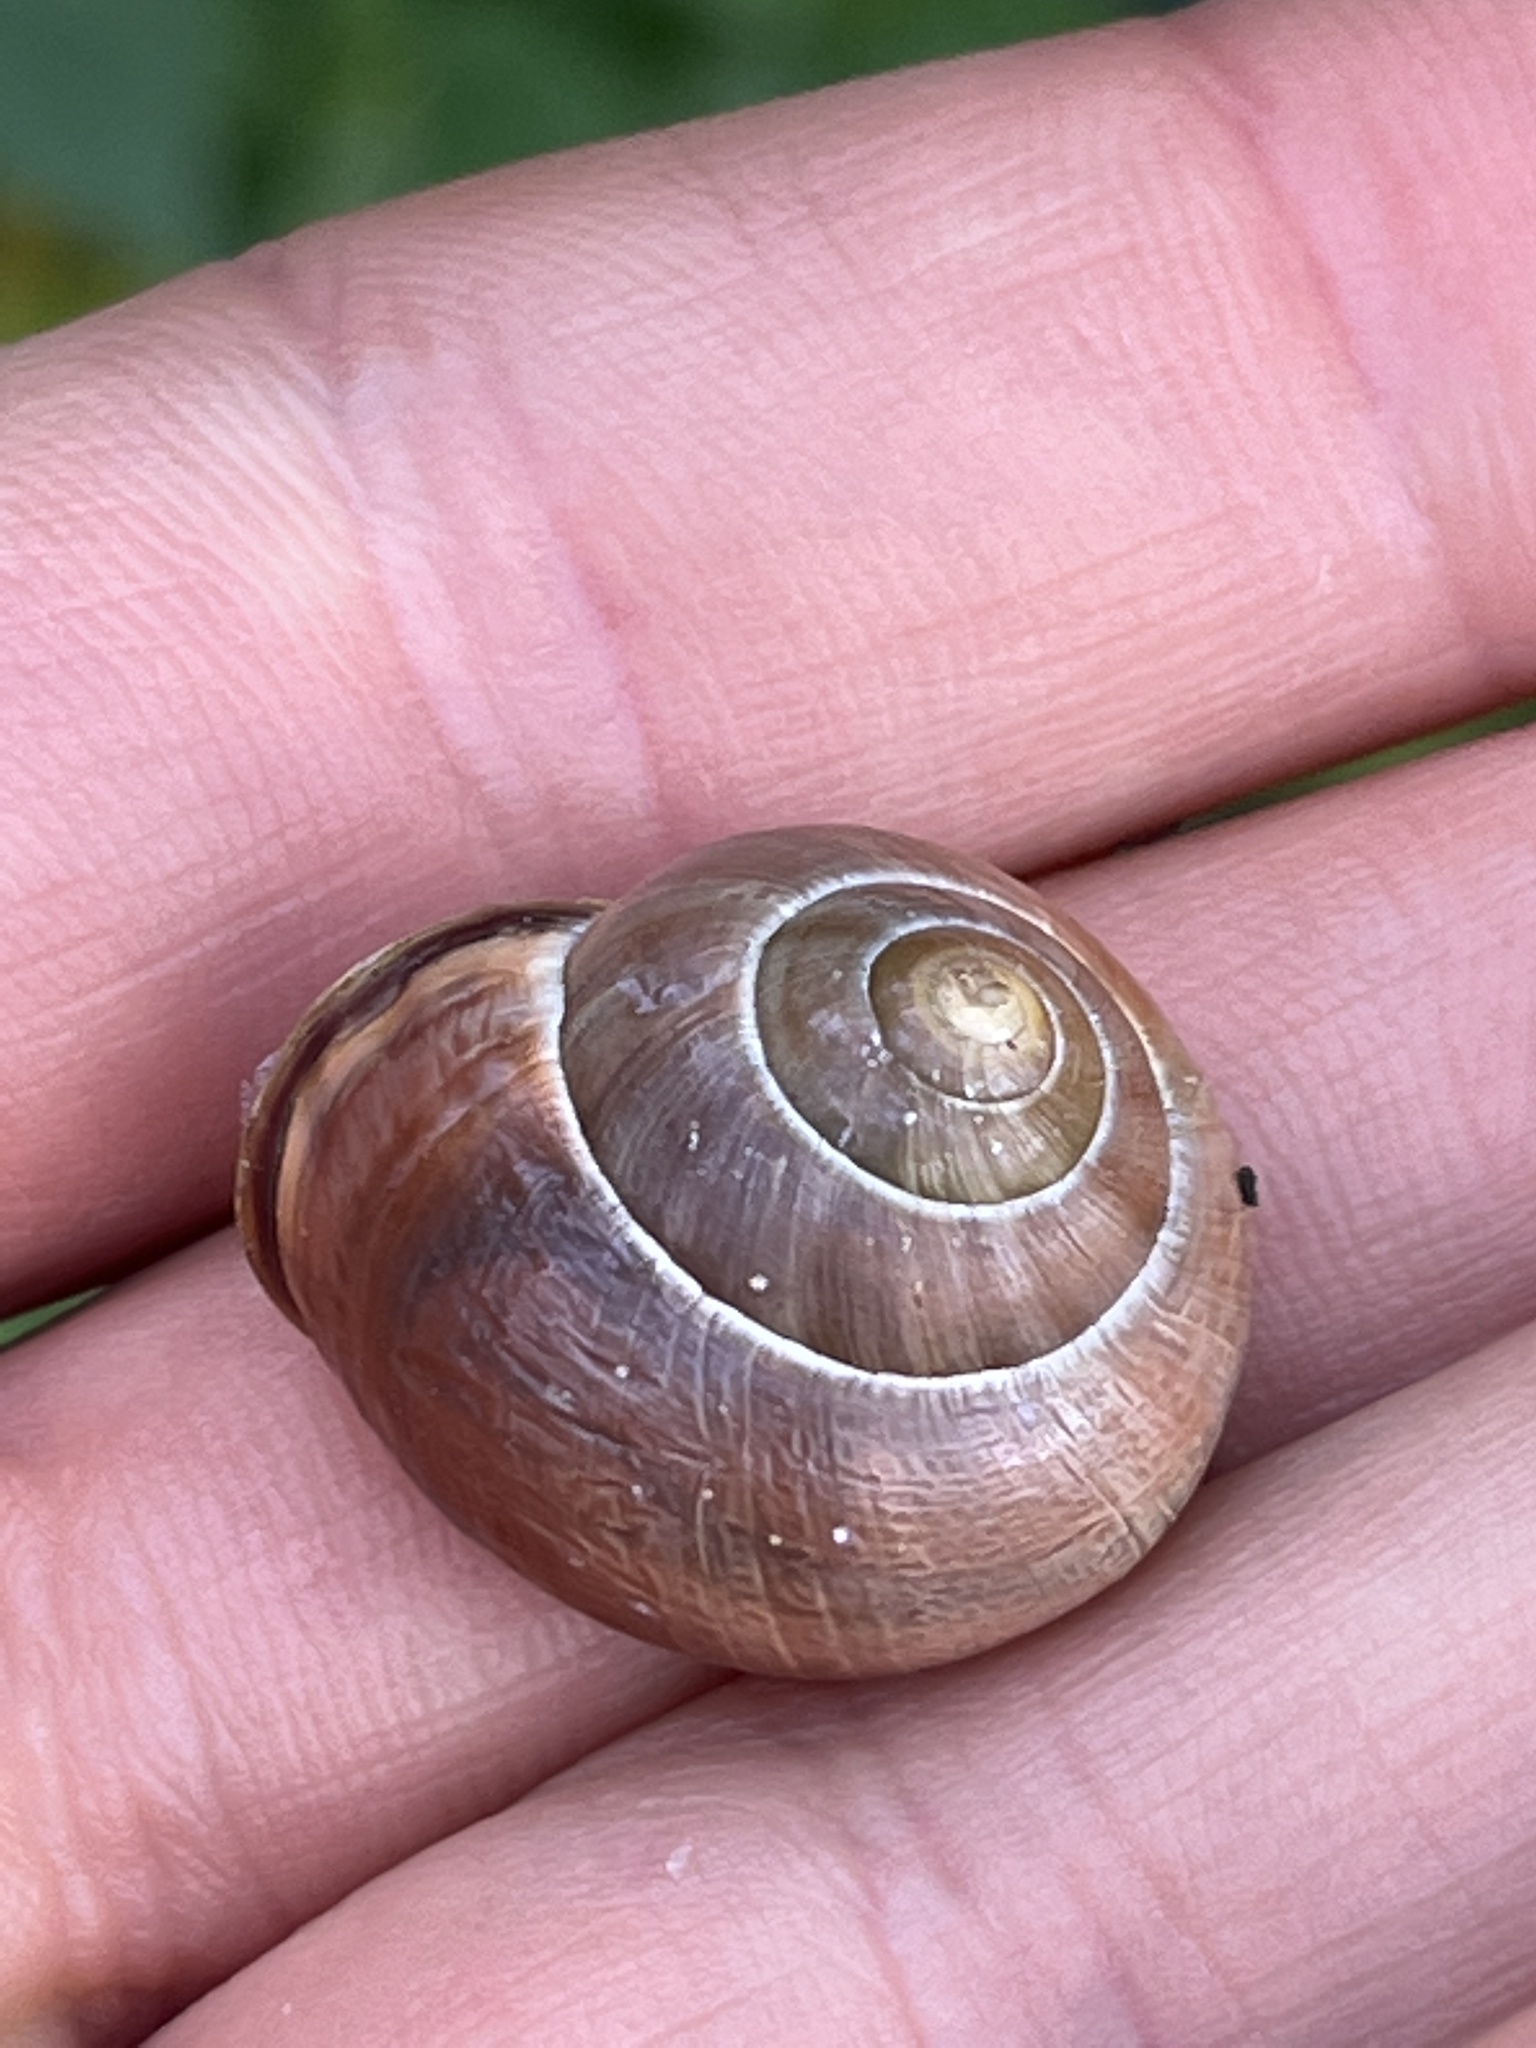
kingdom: Animalia
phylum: Mollusca
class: Gastropoda
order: Stylommatophora
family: Helicidae
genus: Cepaea
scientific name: Cepaea nemoralis
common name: Grovesnail
